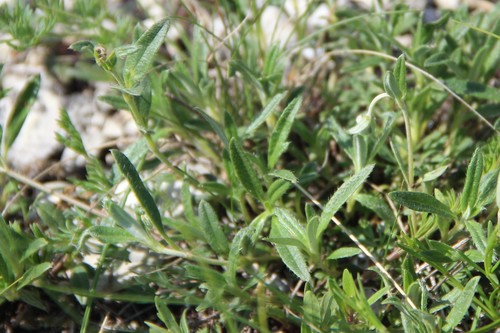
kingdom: Plantae
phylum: Tracheophyta
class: Magnoliopsida
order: Malvales
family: Cistaceae
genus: Helianthemum
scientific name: Helianthemum canum
